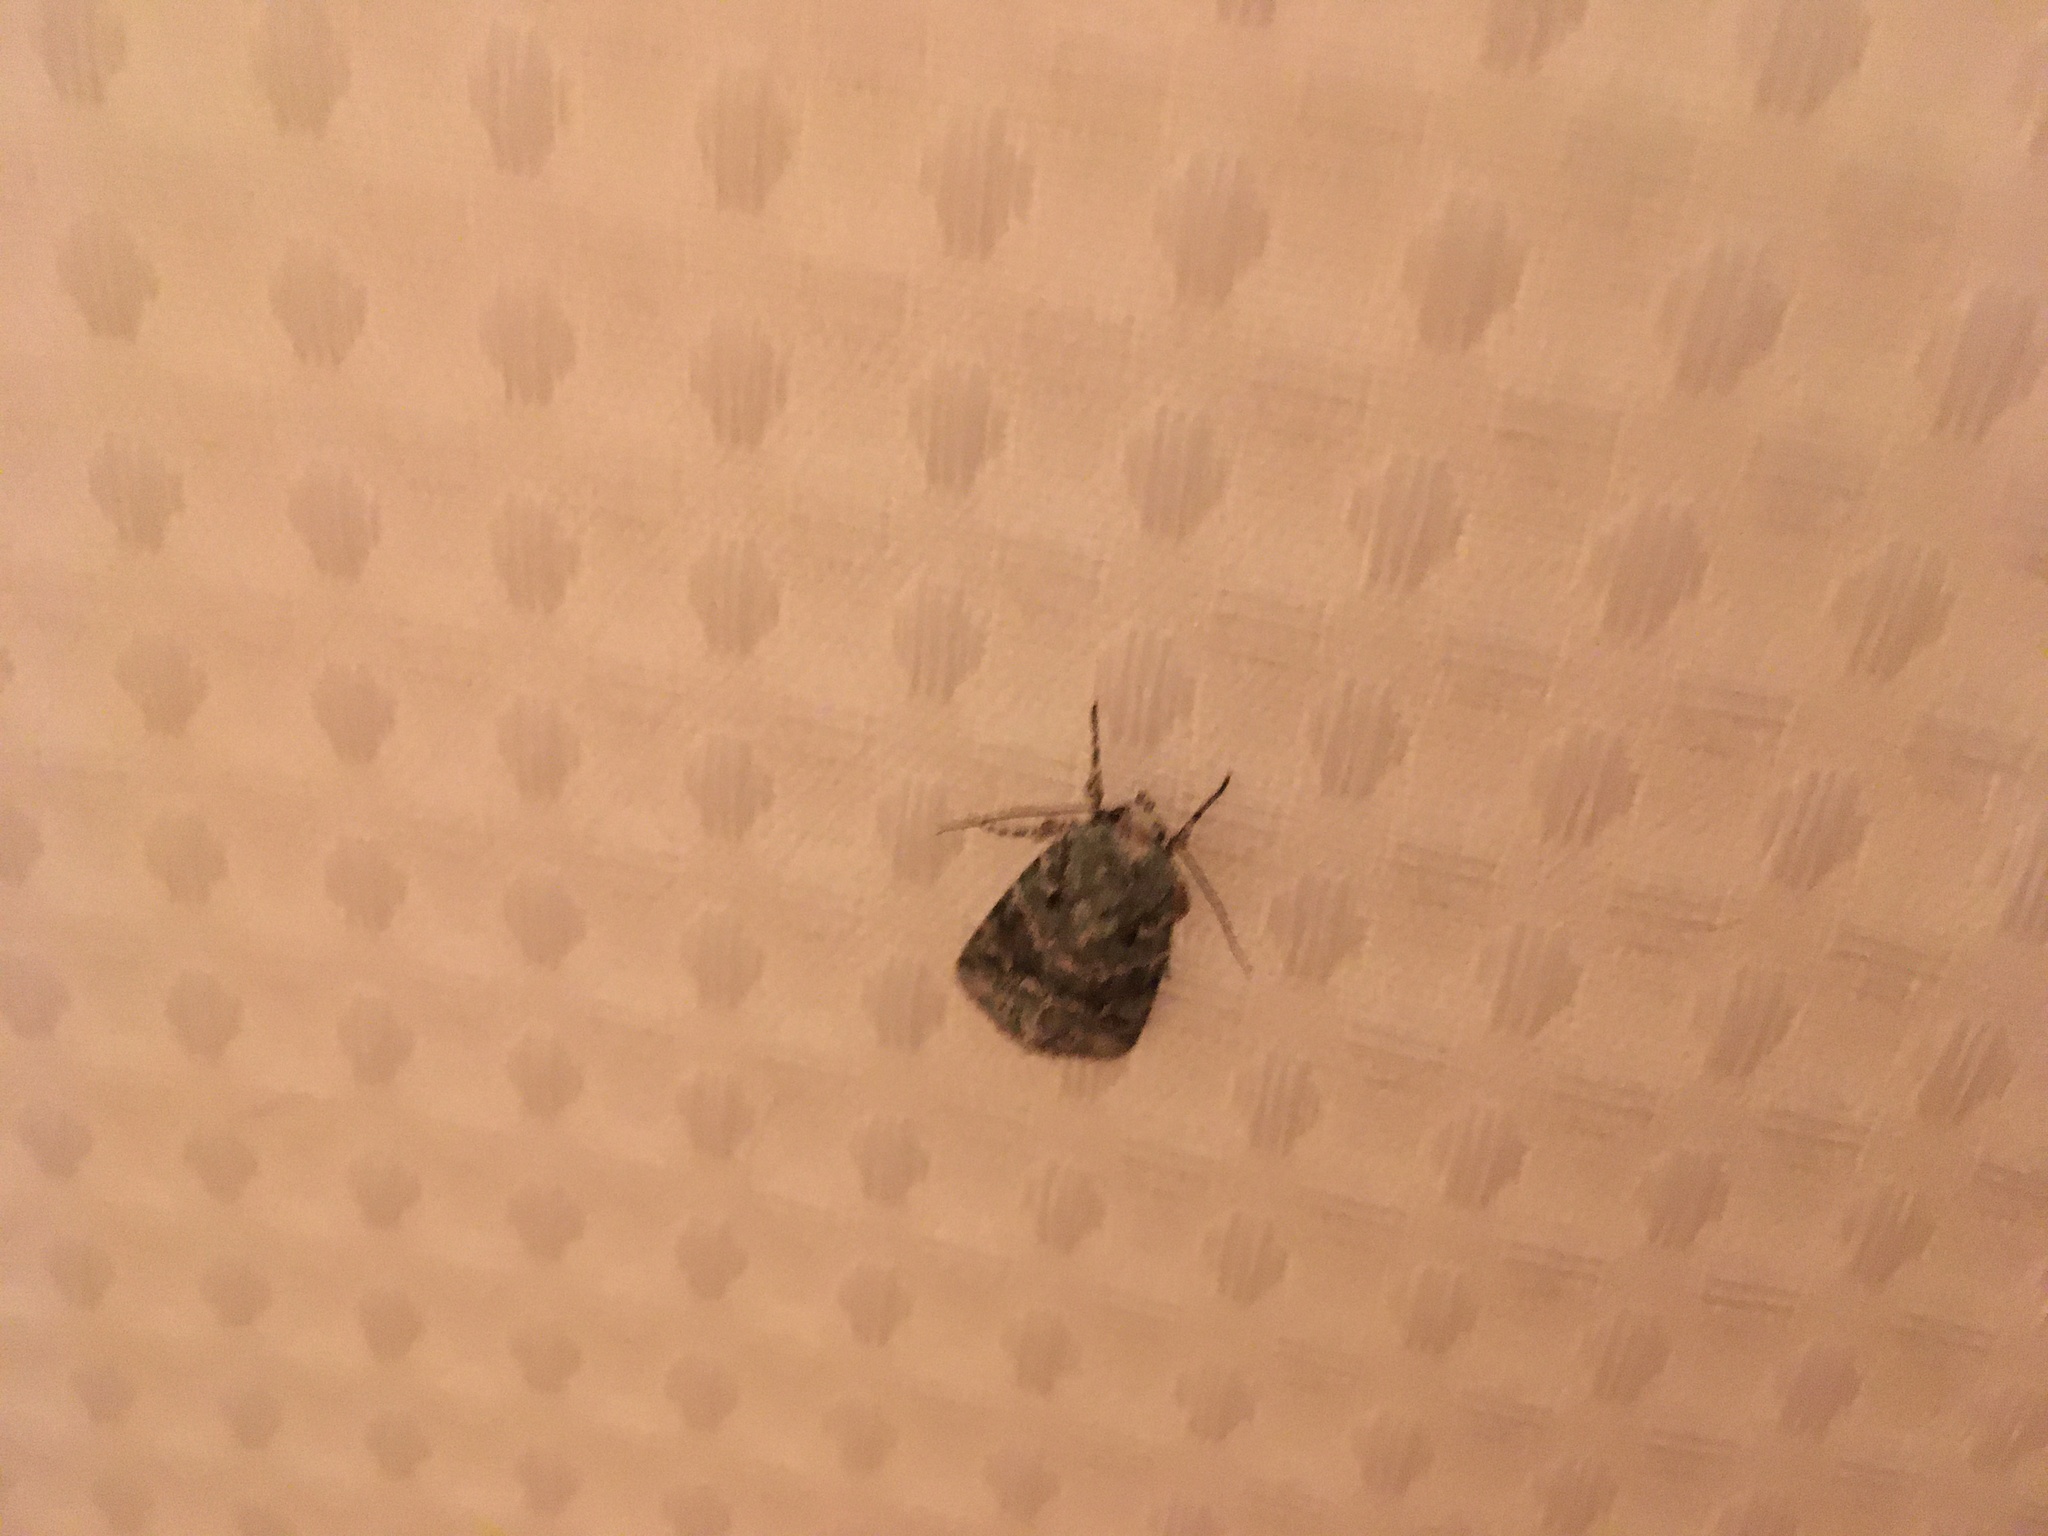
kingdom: Animalia
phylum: Arthropoda
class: Insecta
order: Lepidoptera
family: Noctuidae
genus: Lacinipolia
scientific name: Lacinipolia implicata
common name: Implicit arches
